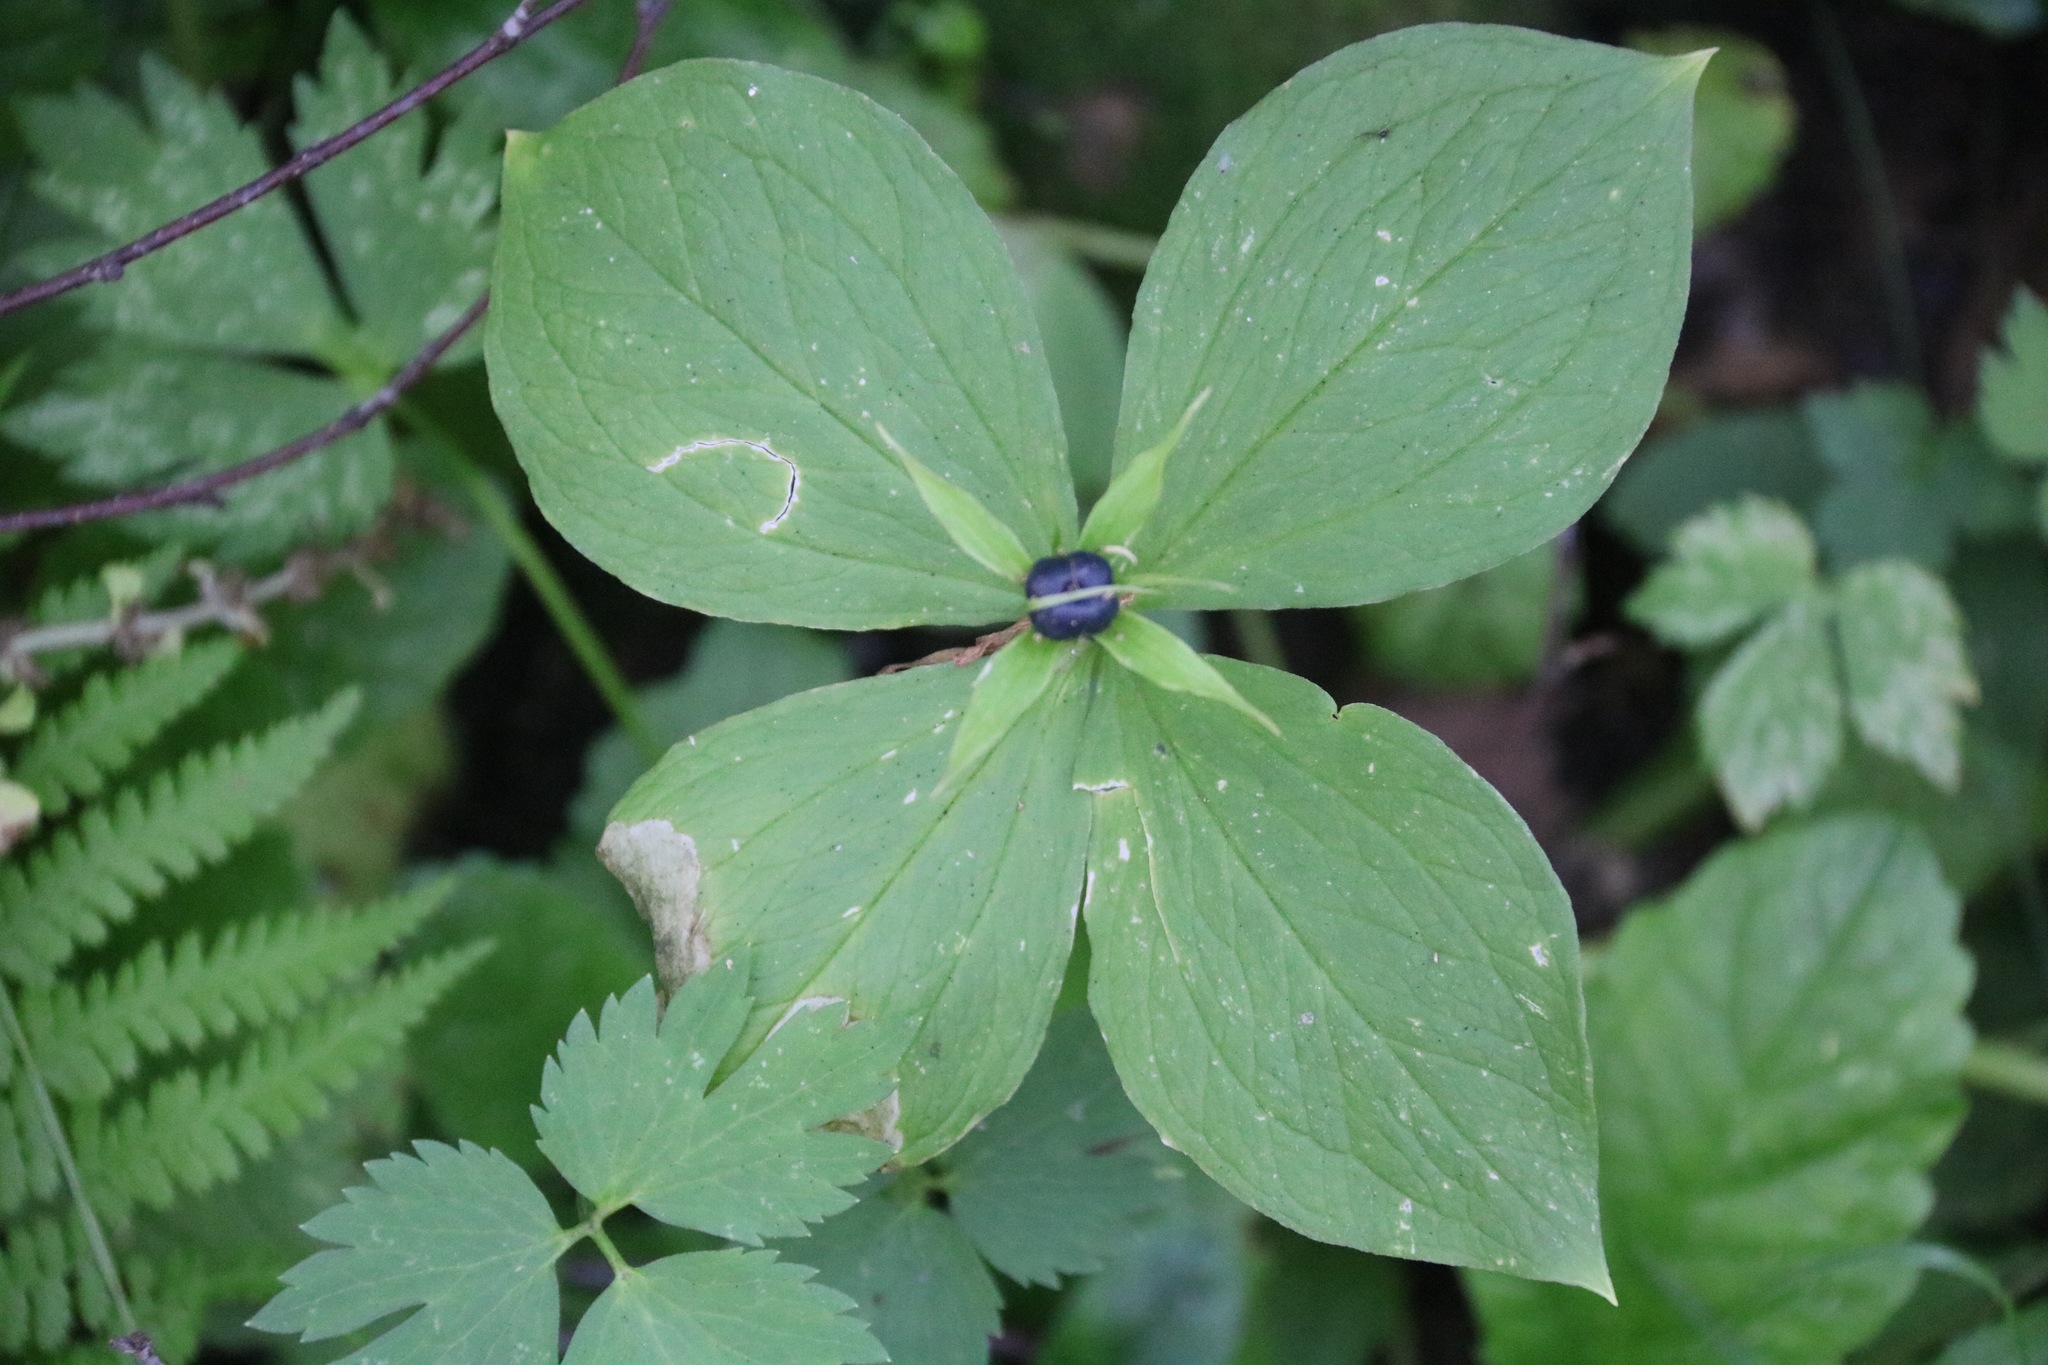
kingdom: Plantae
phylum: Tracheophyta
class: Liliopsida
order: Liliales
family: Melanthiaceae
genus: Paris
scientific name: Paris quadrifolia
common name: Herb-paris
